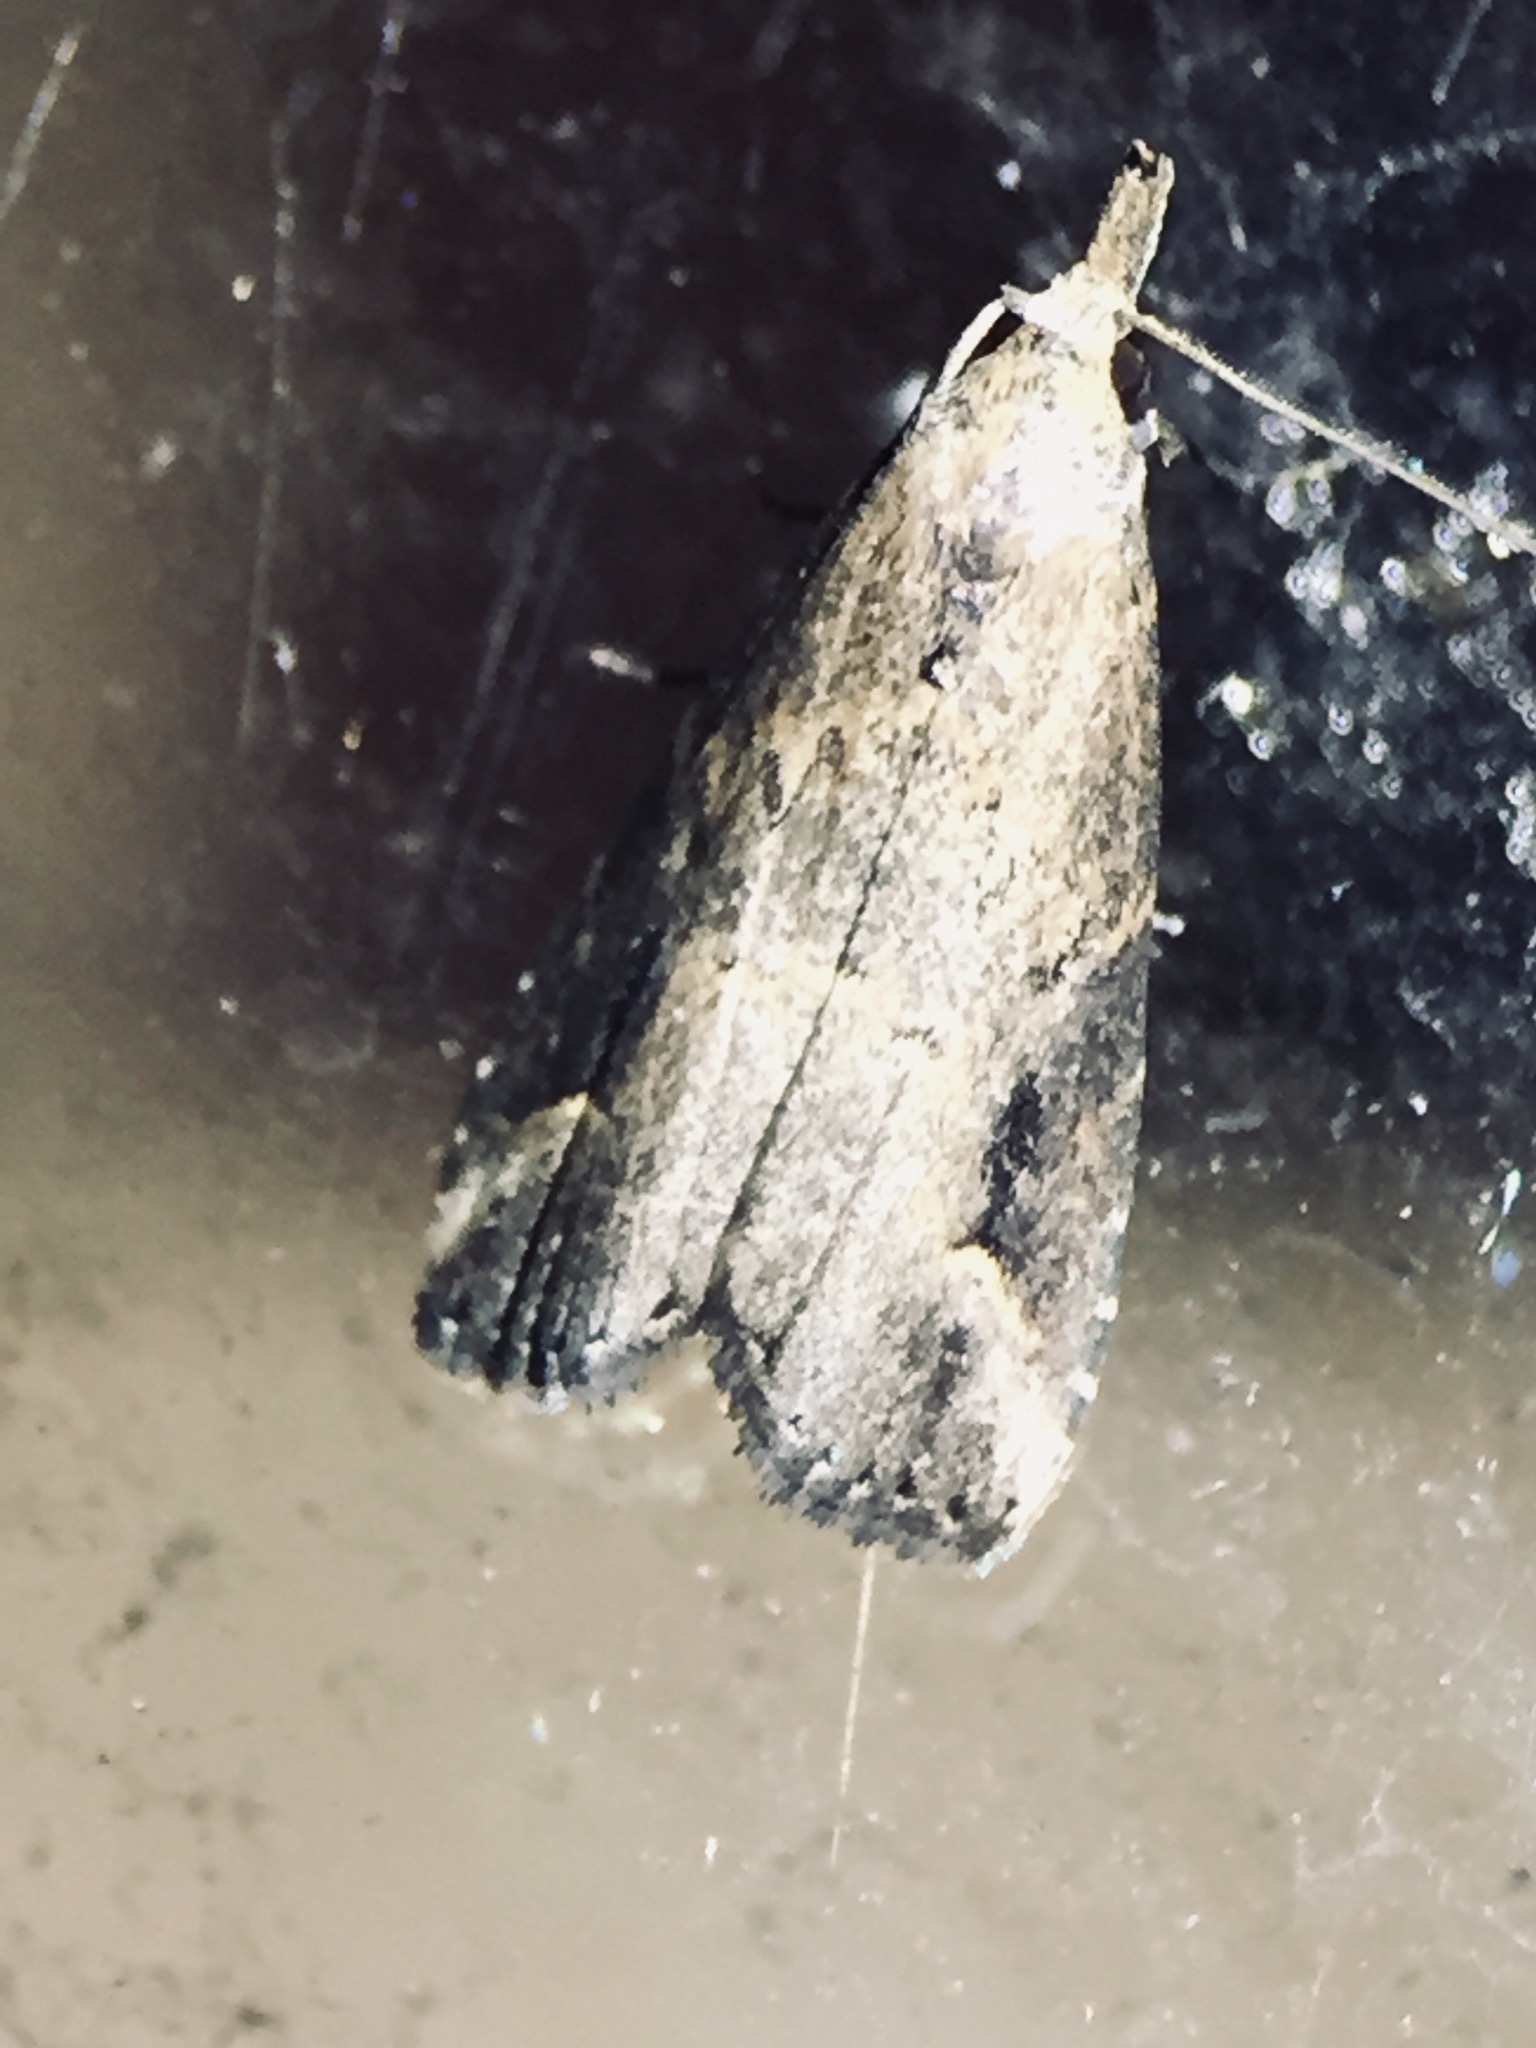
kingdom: Animalia
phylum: Arthropoda
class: Insecta
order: Lepidoptera
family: Erebidae
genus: Schrankia
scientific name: Schrankia costaestrigalis
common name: Pinion-streaked snout
